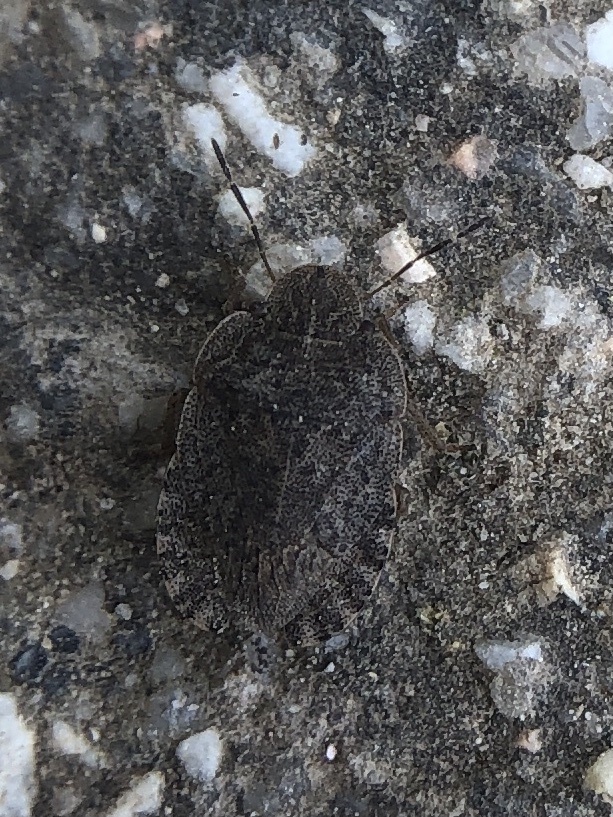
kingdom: Animalia
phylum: Arthropoda
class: Insecta
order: Hemiptera
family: Pentatomidae
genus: Sciocoris
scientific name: Sciocoris homalonotus
